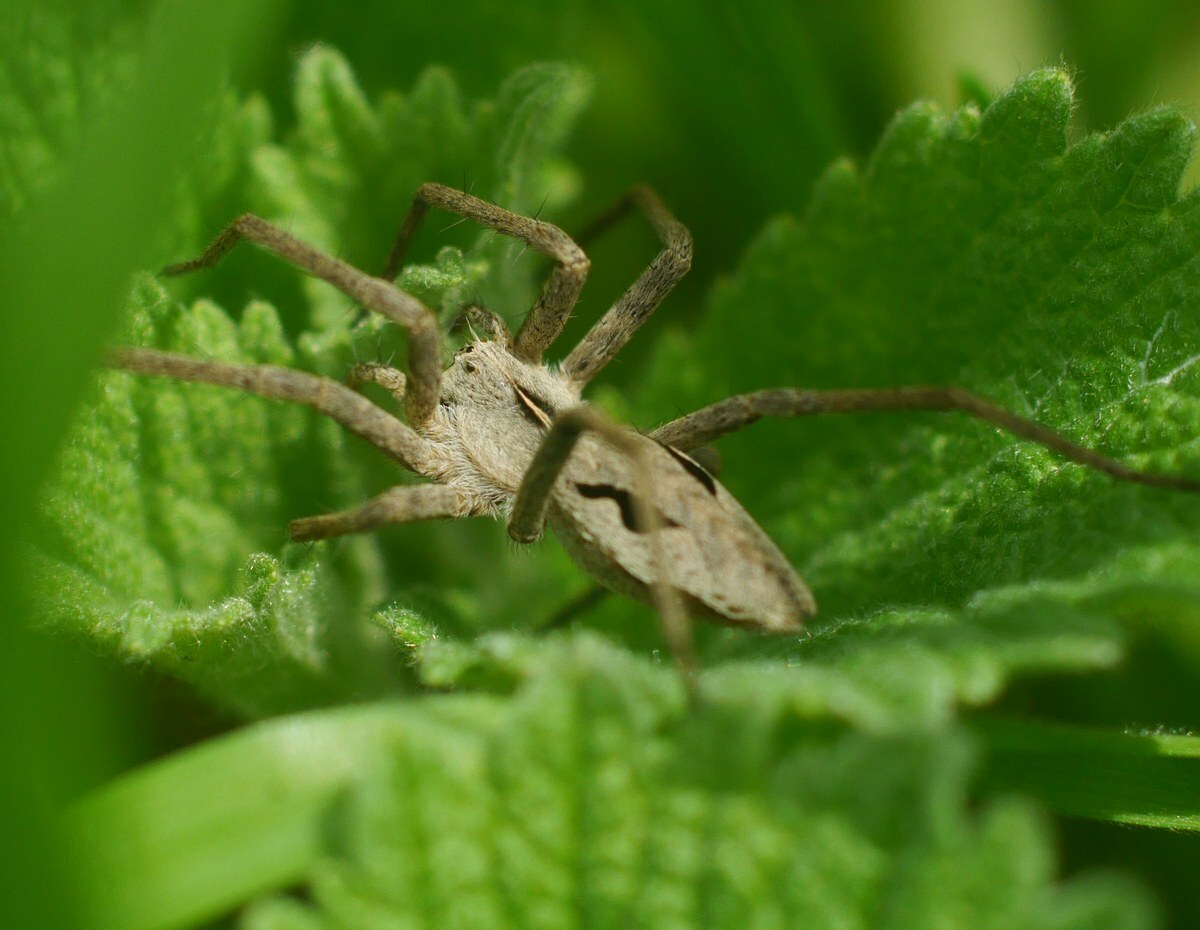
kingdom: Animalia
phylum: Arthropoda
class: Arachnida
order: Araneae
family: Pisauridae
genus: Pisaura
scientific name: Pisaura
